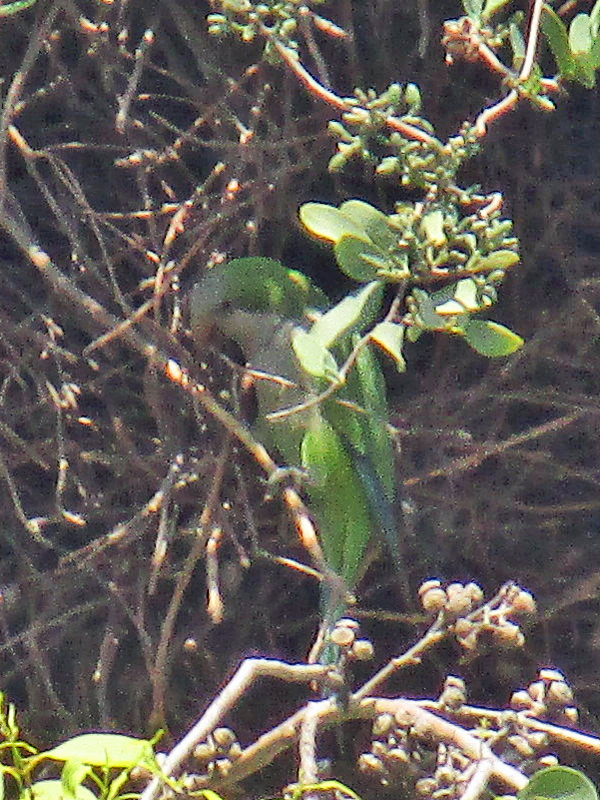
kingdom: Animalia
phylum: Chordata
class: Aves
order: Psittaciformes
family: Psittacidae
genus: Myiopsitta
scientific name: Myiopsitta monachus
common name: Monk parakeet
